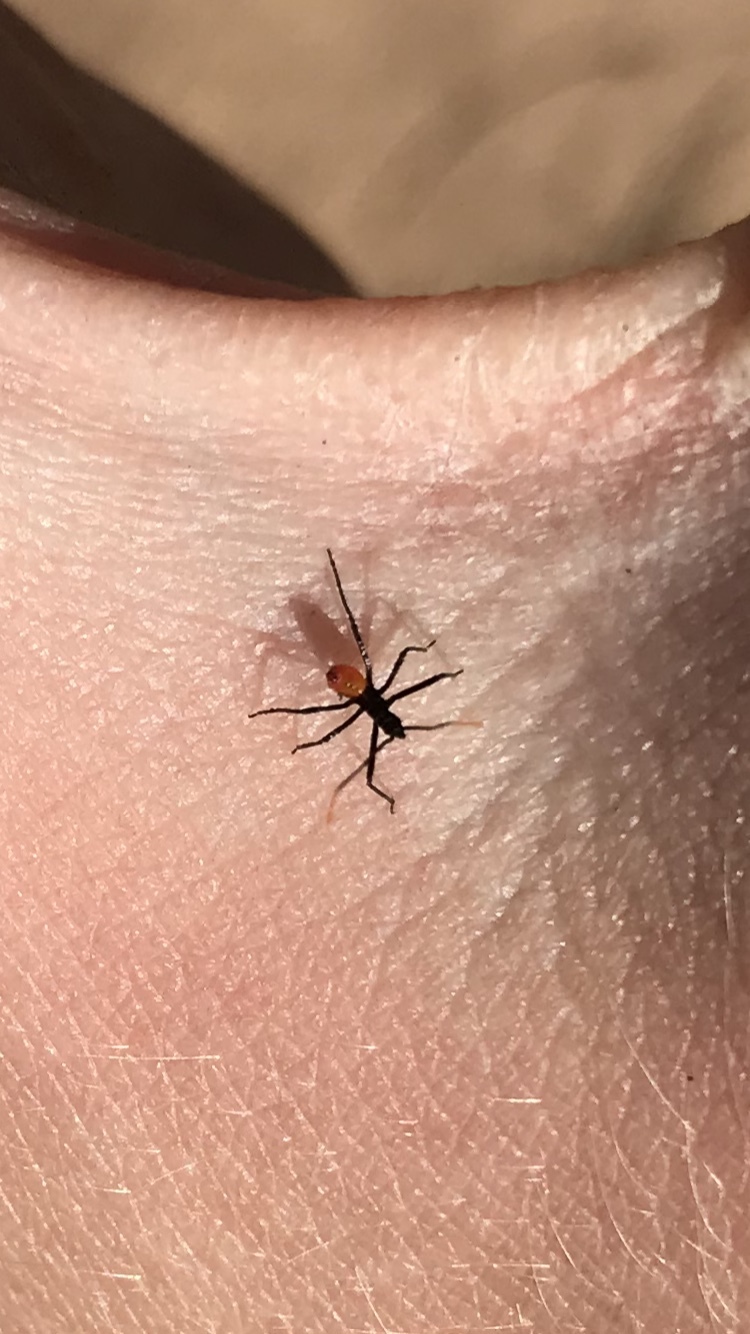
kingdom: Animalia
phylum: Arthropoda
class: Insecta
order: Hemiptera
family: Reduviidae
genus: Arilus
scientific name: Arilus cristatus
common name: North american wheel bug
